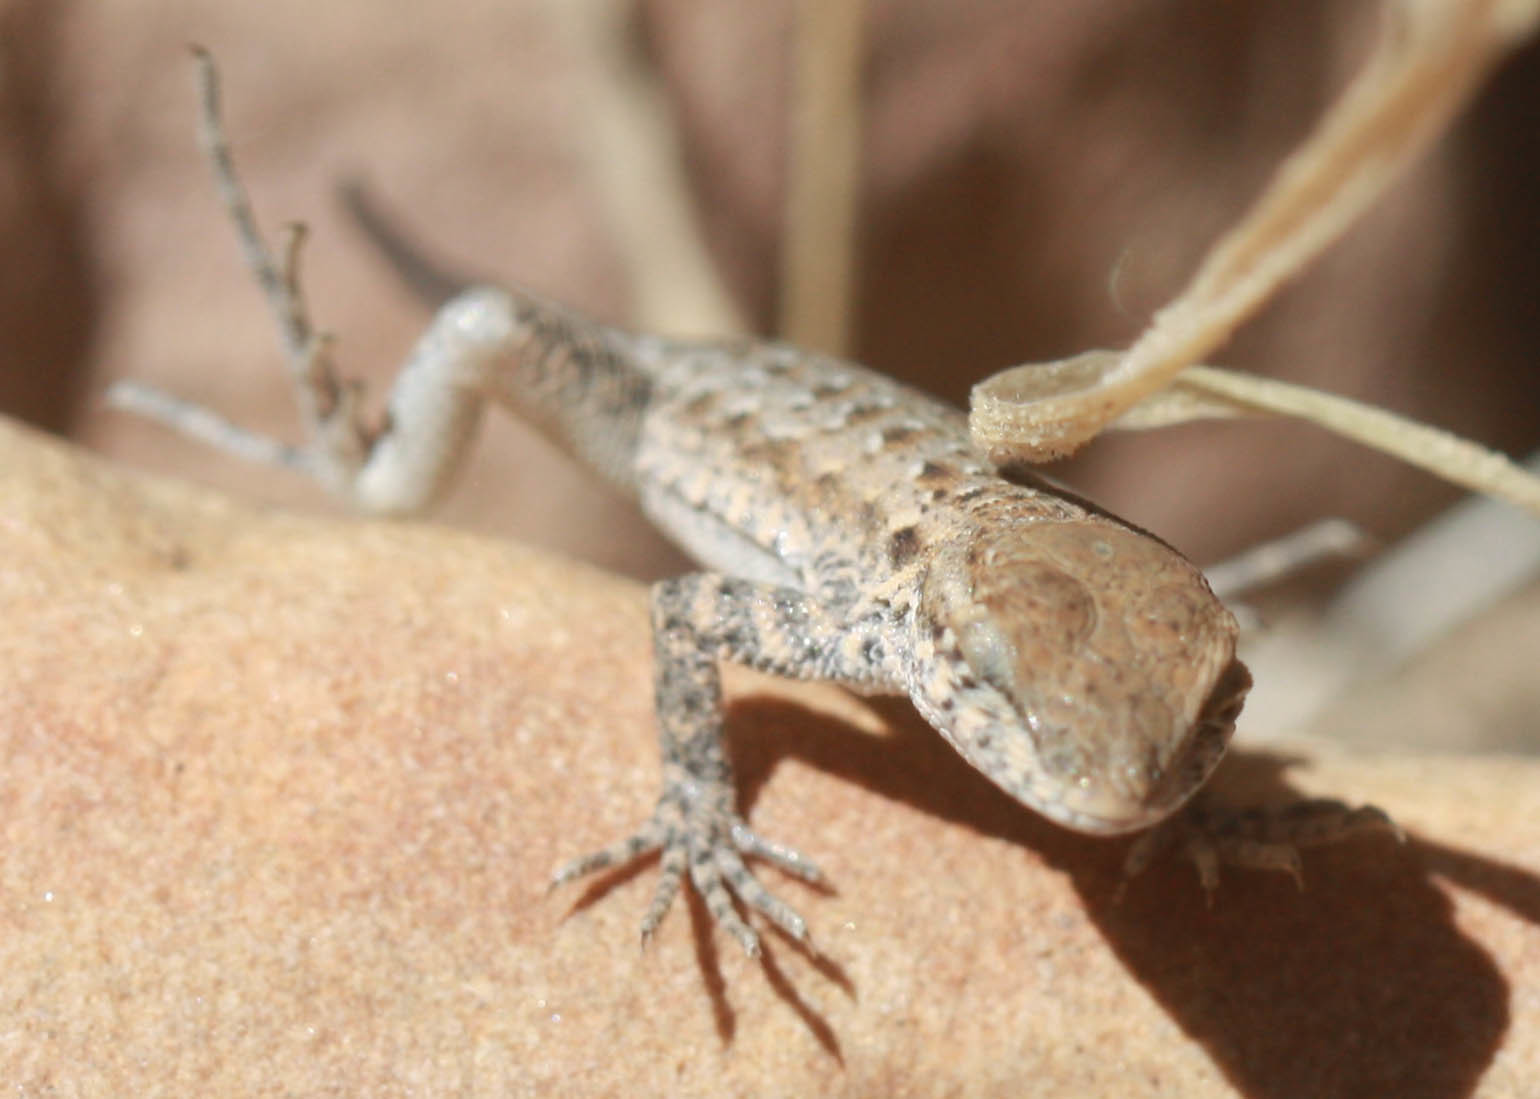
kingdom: Animalia
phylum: Chordata
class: Squamata
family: Phrynosomatidae
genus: Uta
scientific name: Uta stansburiana
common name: Side-blotched lizard
